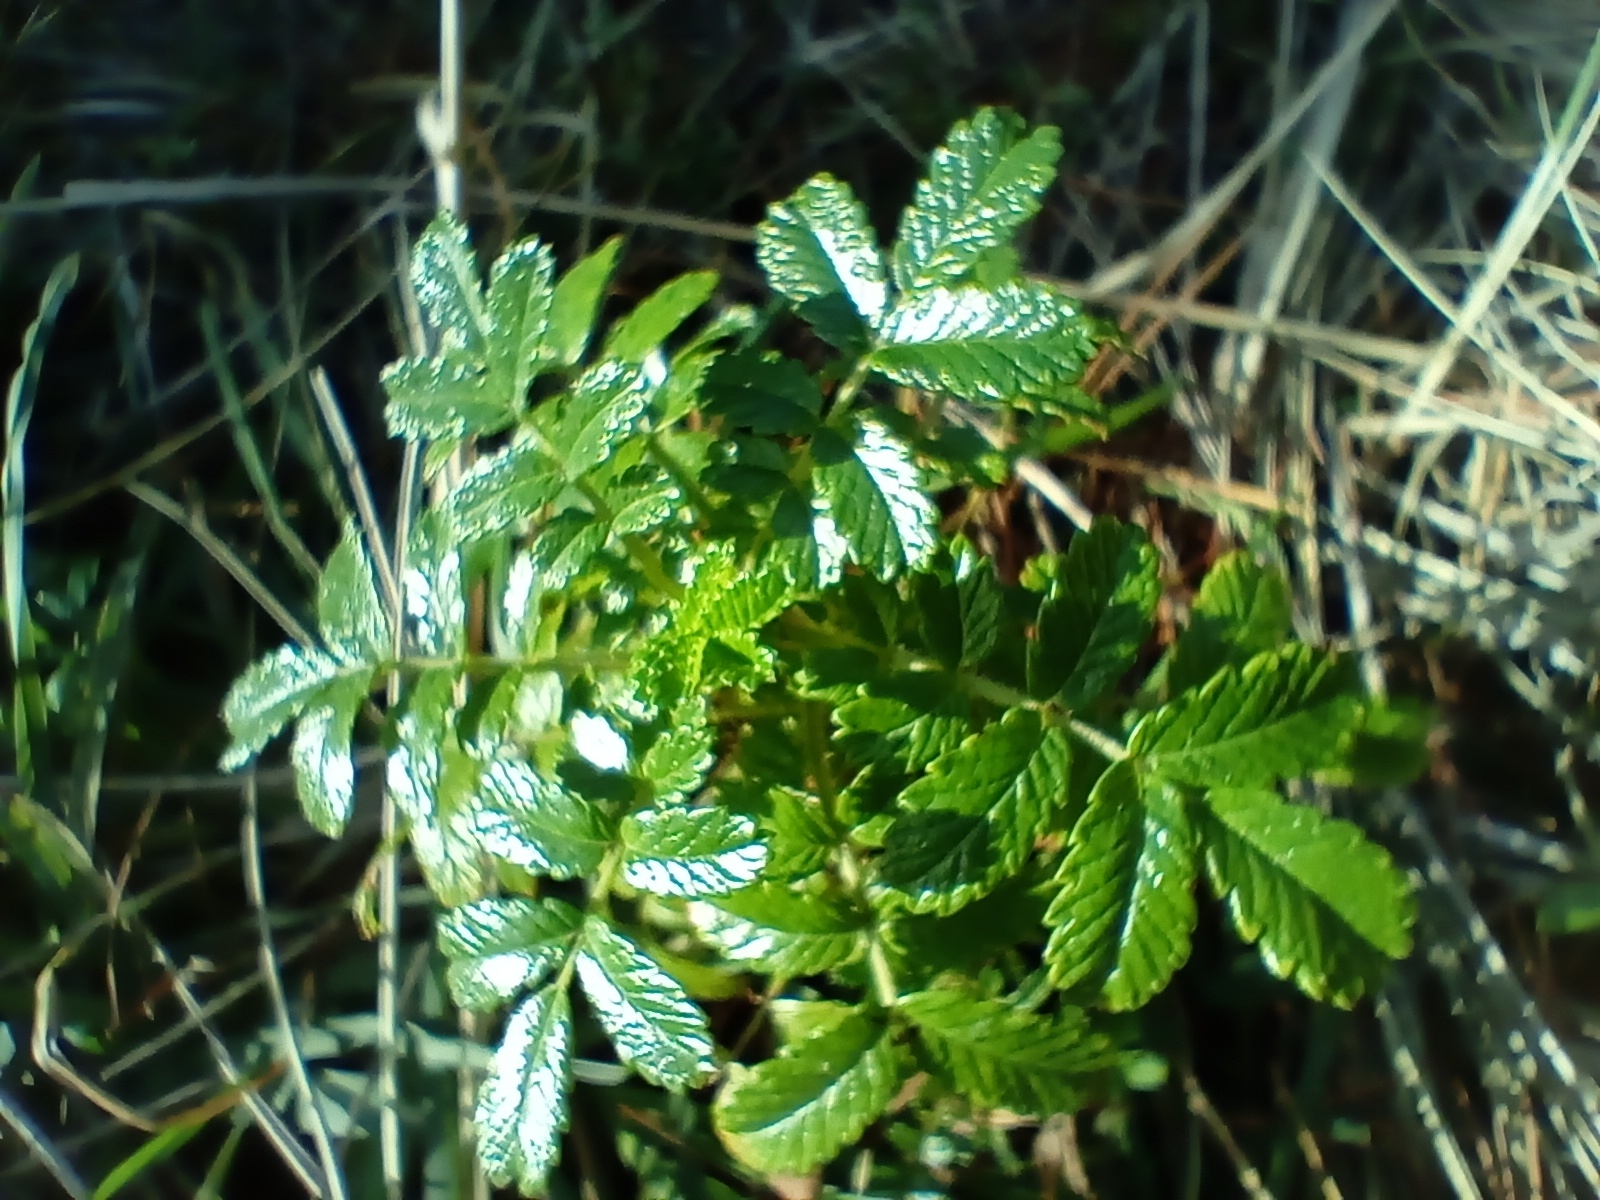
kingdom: Plantae
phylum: Tracheophyta
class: Magnoliopsida
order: Rosales
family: Rosaceae
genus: Acaena
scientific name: Acaena pallida
